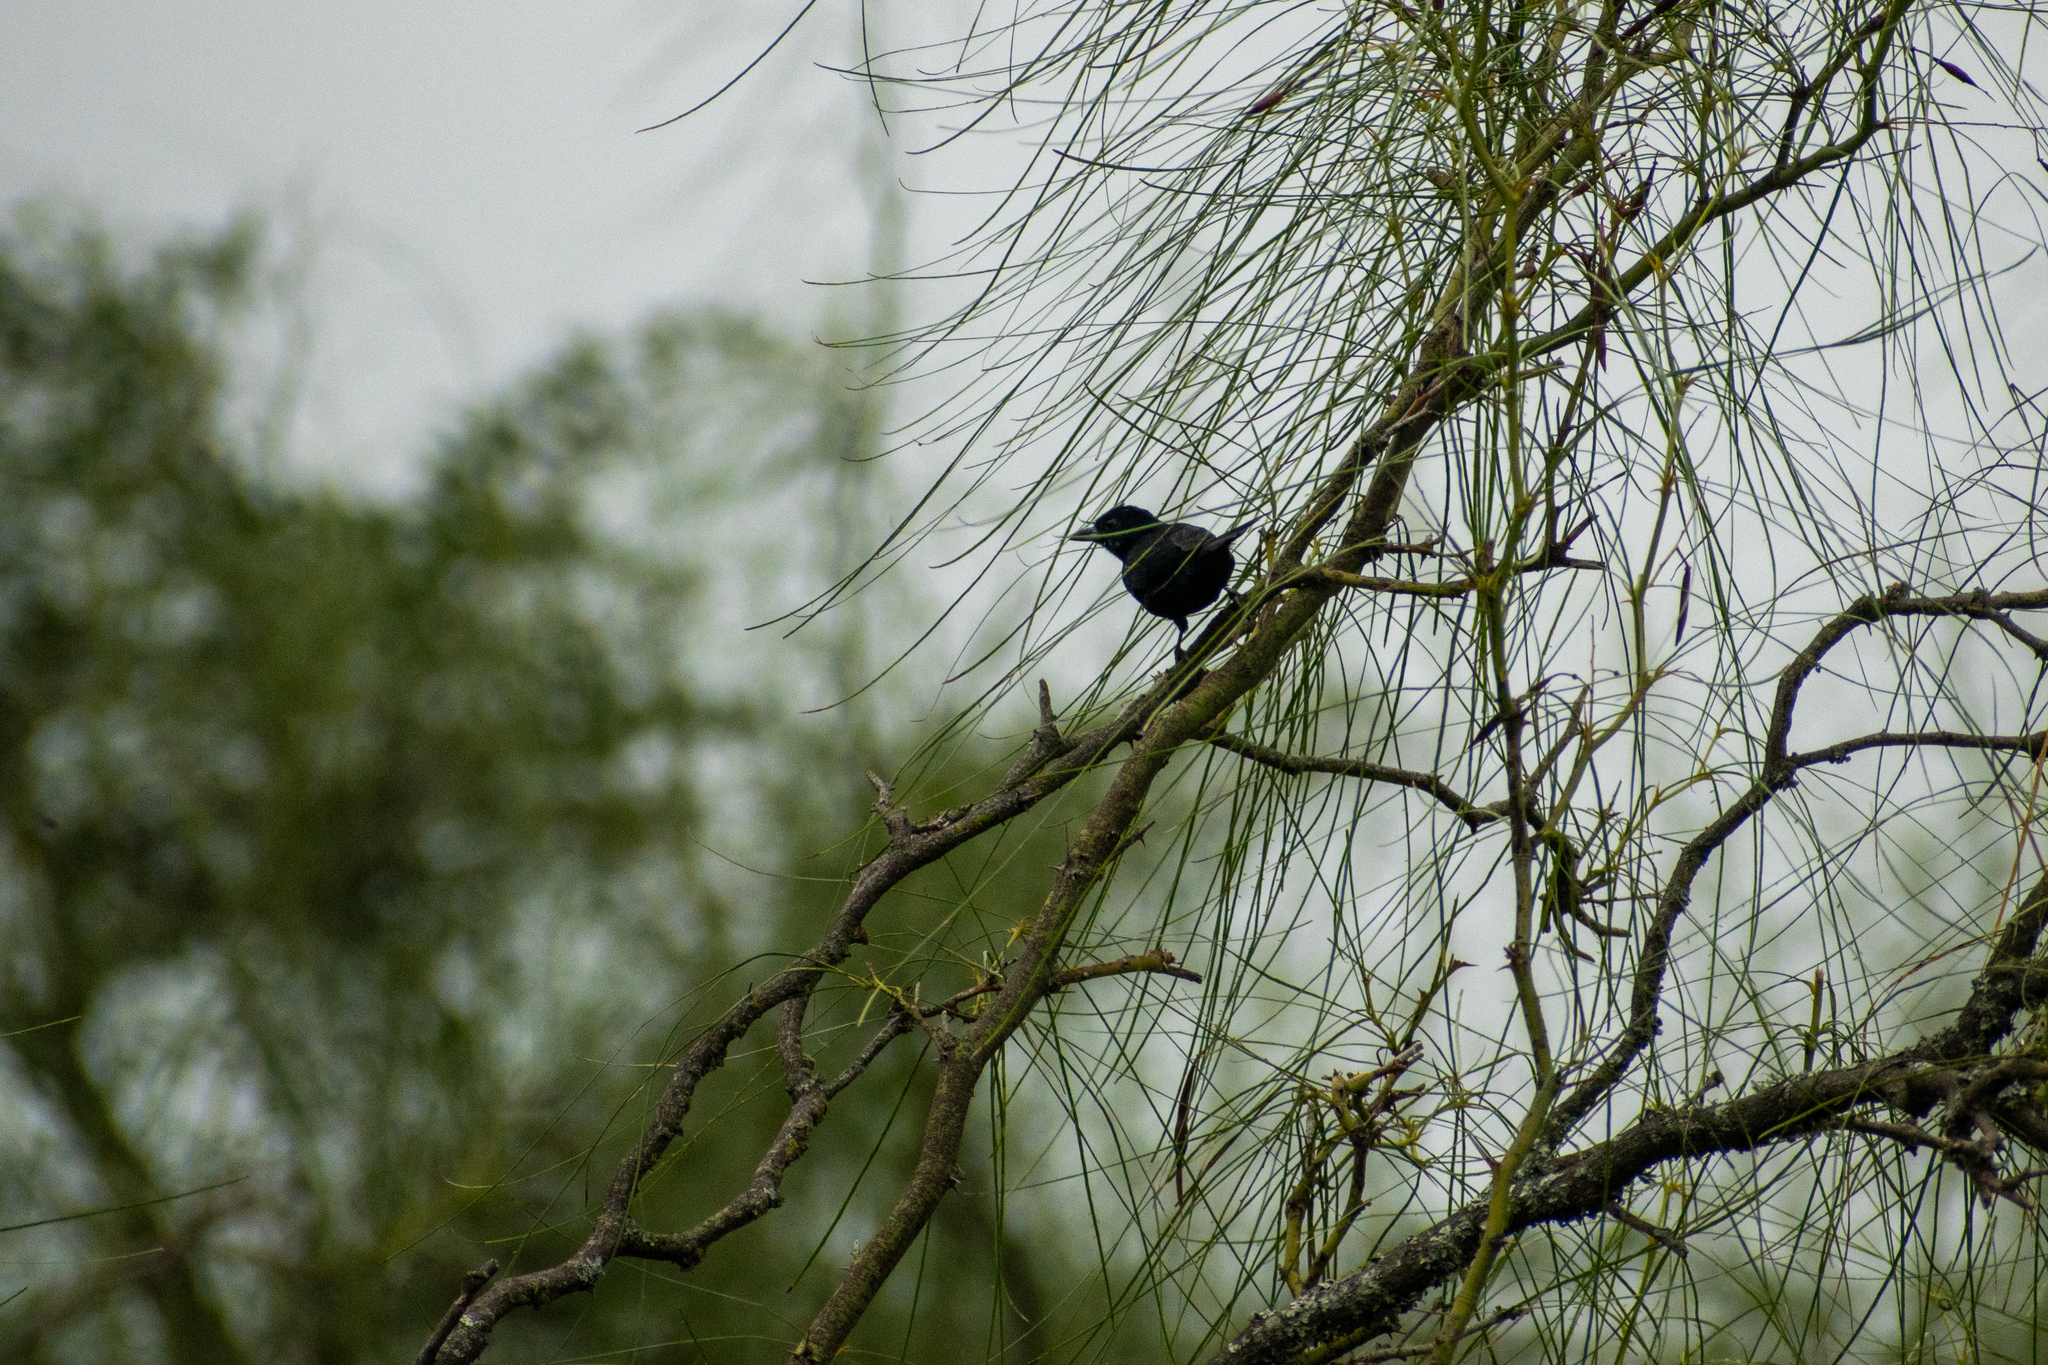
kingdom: Animalia
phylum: Chordata
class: Aves
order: Passeriformes
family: Thraupidae
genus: Tachyphonus
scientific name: Tachyphonus rufus
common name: White-lined tanager
